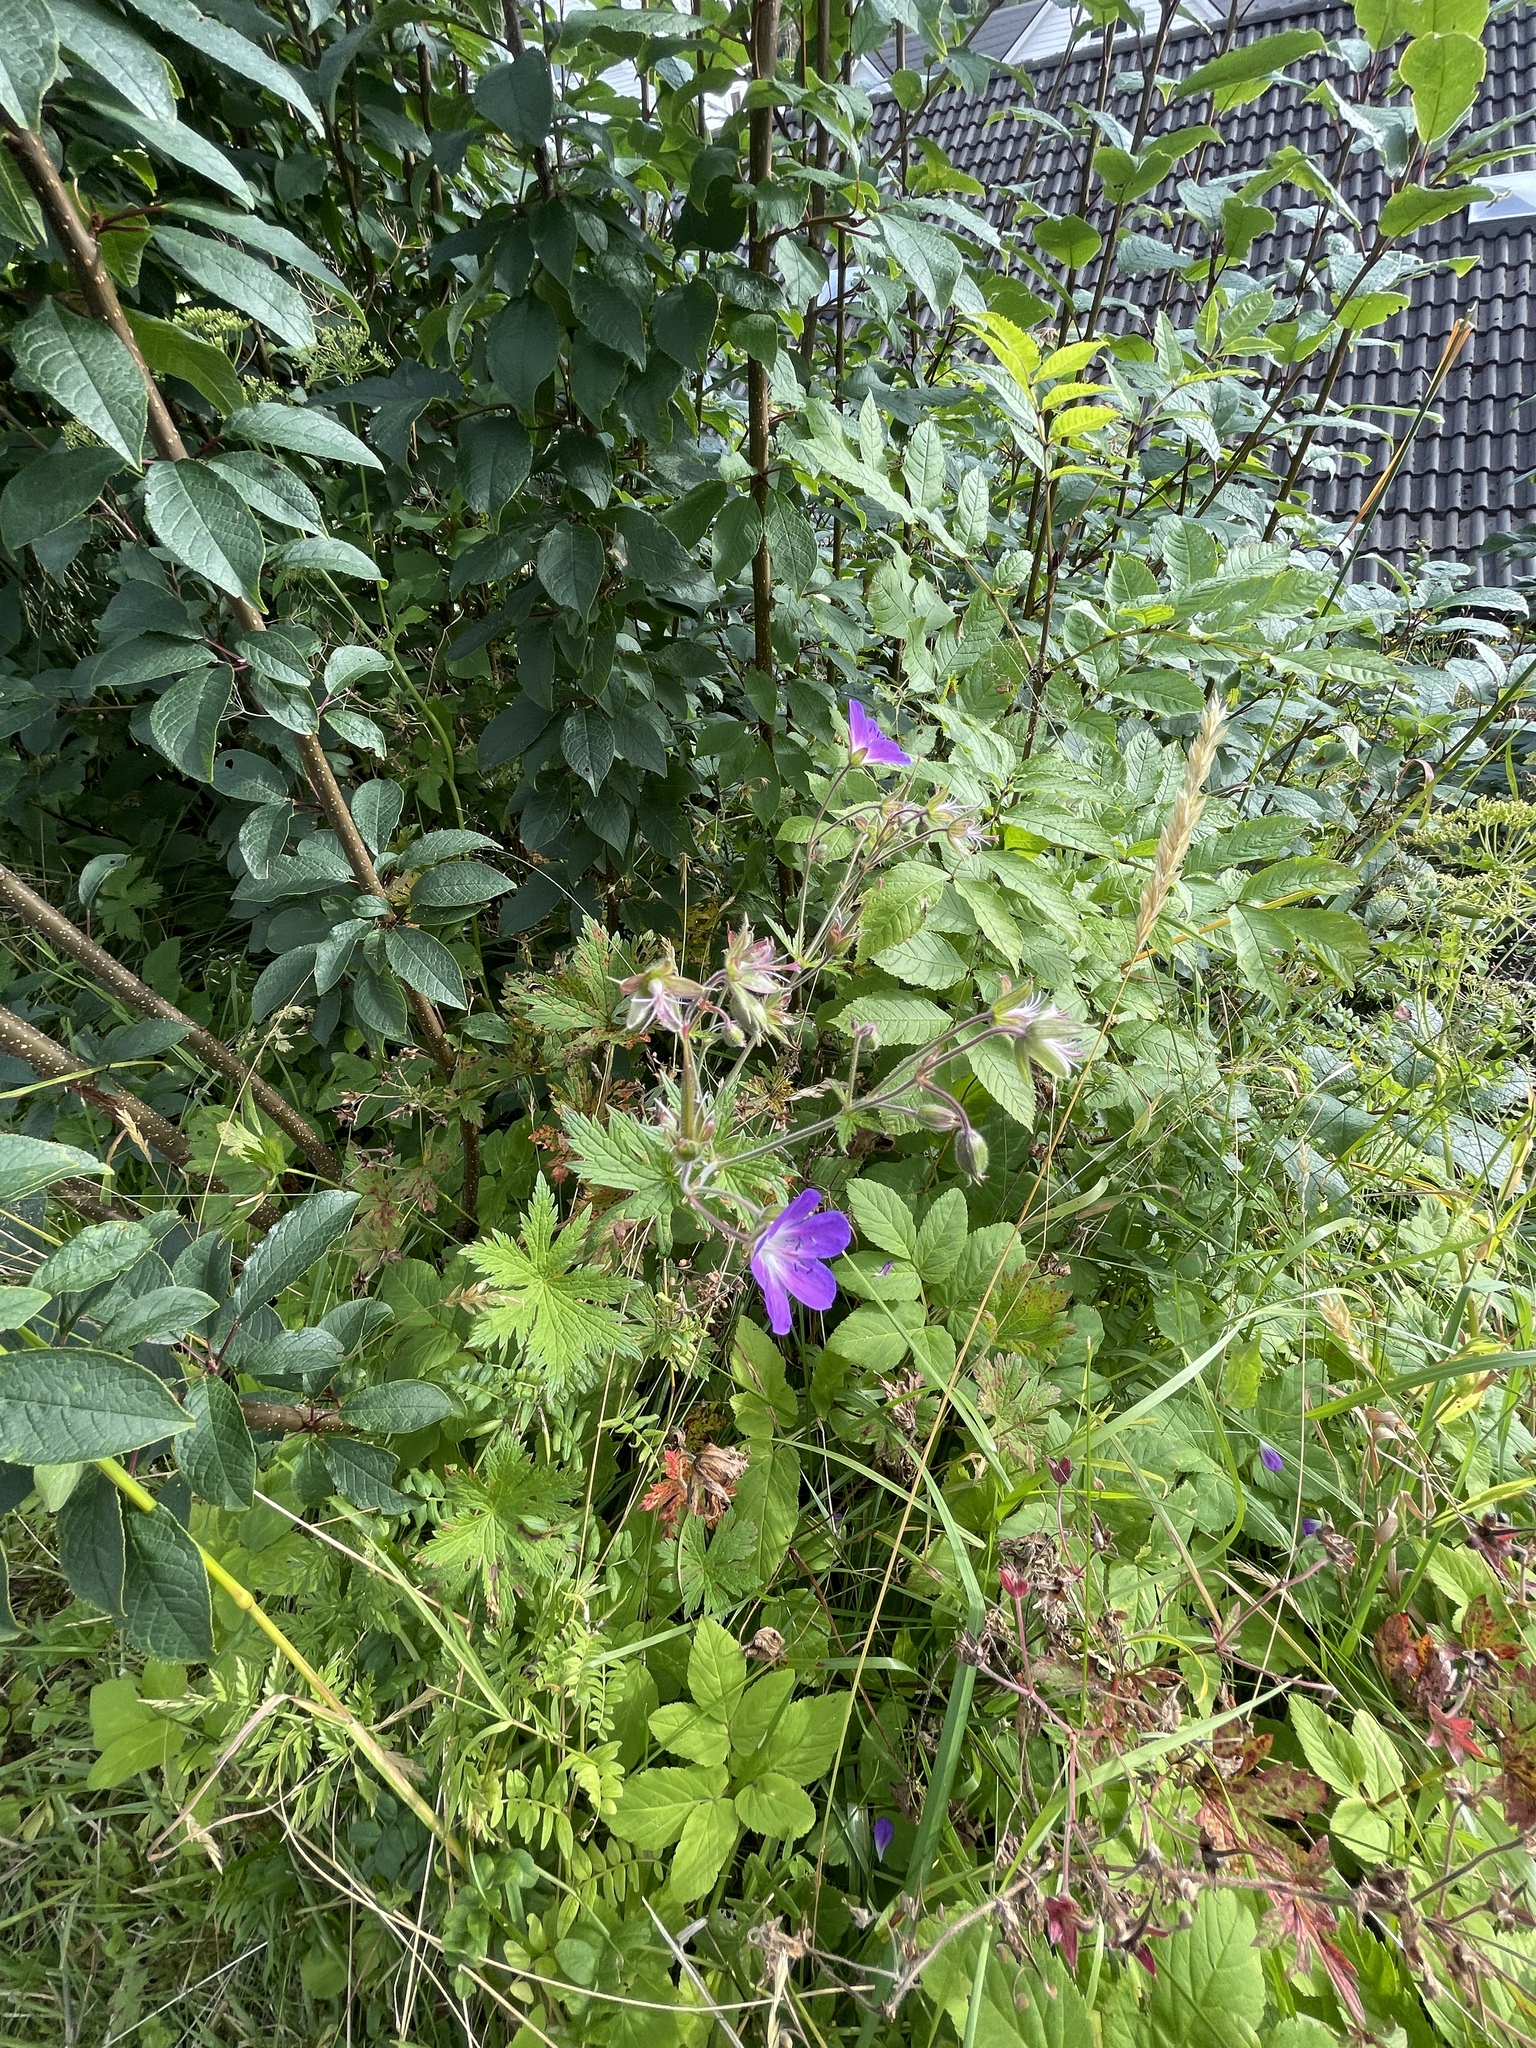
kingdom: Plantae
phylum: Tracheophyta
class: Magnoliopsida
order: Geraniales
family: Geraniaceae
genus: Geranium
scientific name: Geranium sylvaticum
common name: Wood crane's-bill
